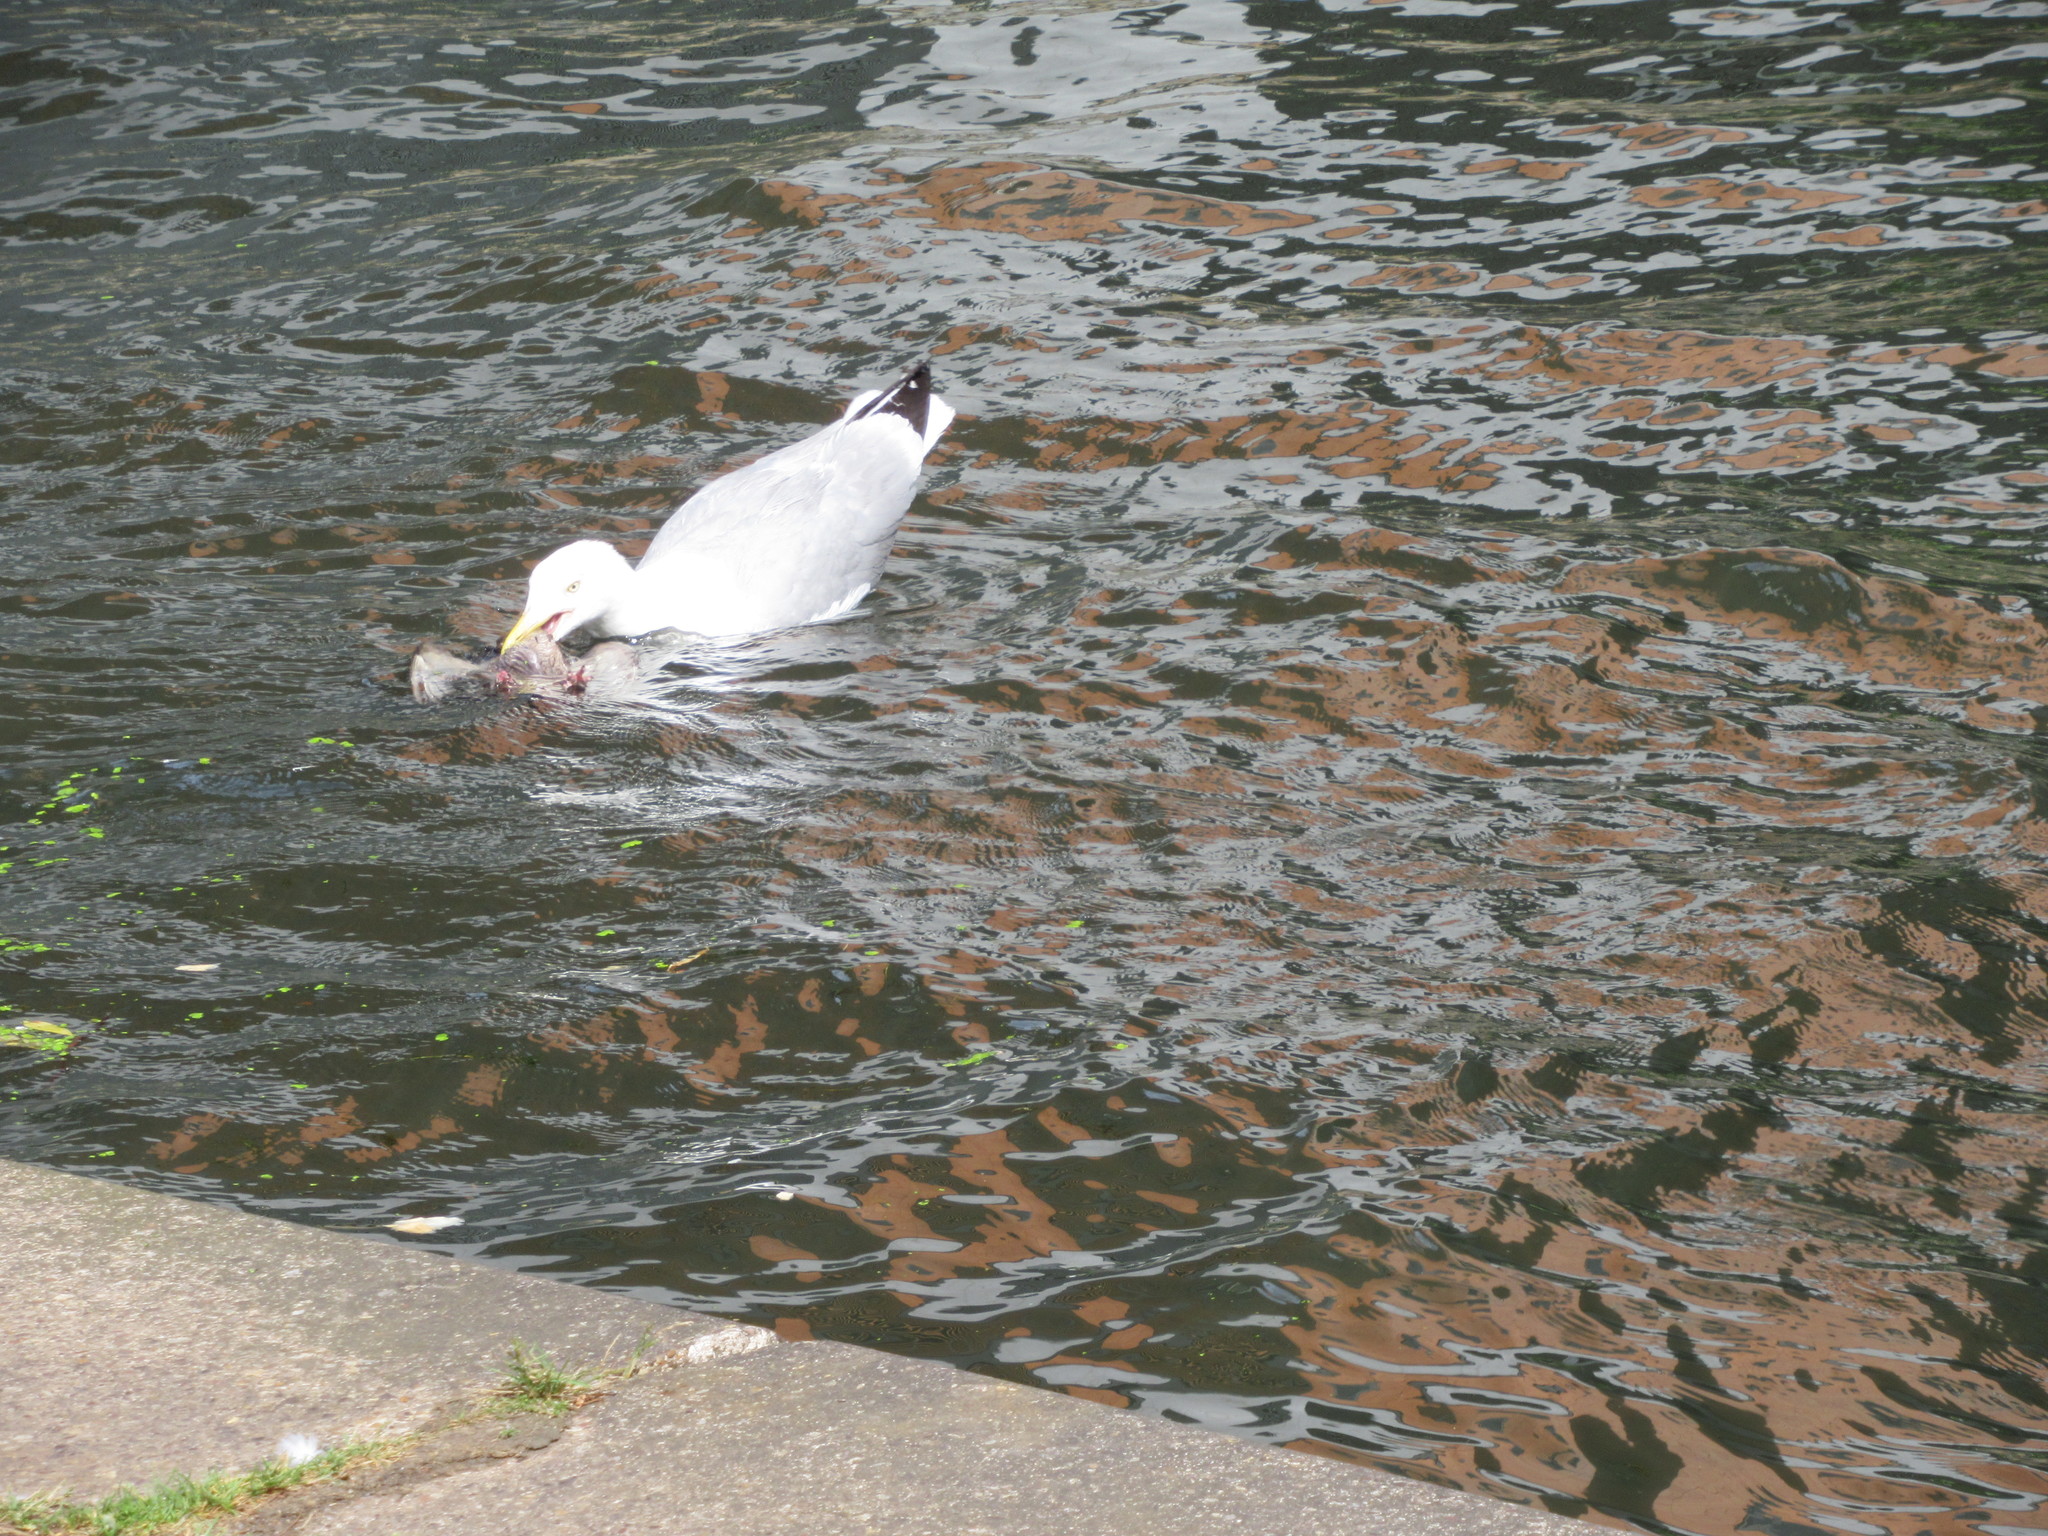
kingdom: Animalia
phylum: Chordata
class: Aves
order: Charadriiformes
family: Laridae
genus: Larus
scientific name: Larus argentatus
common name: Herring gull
